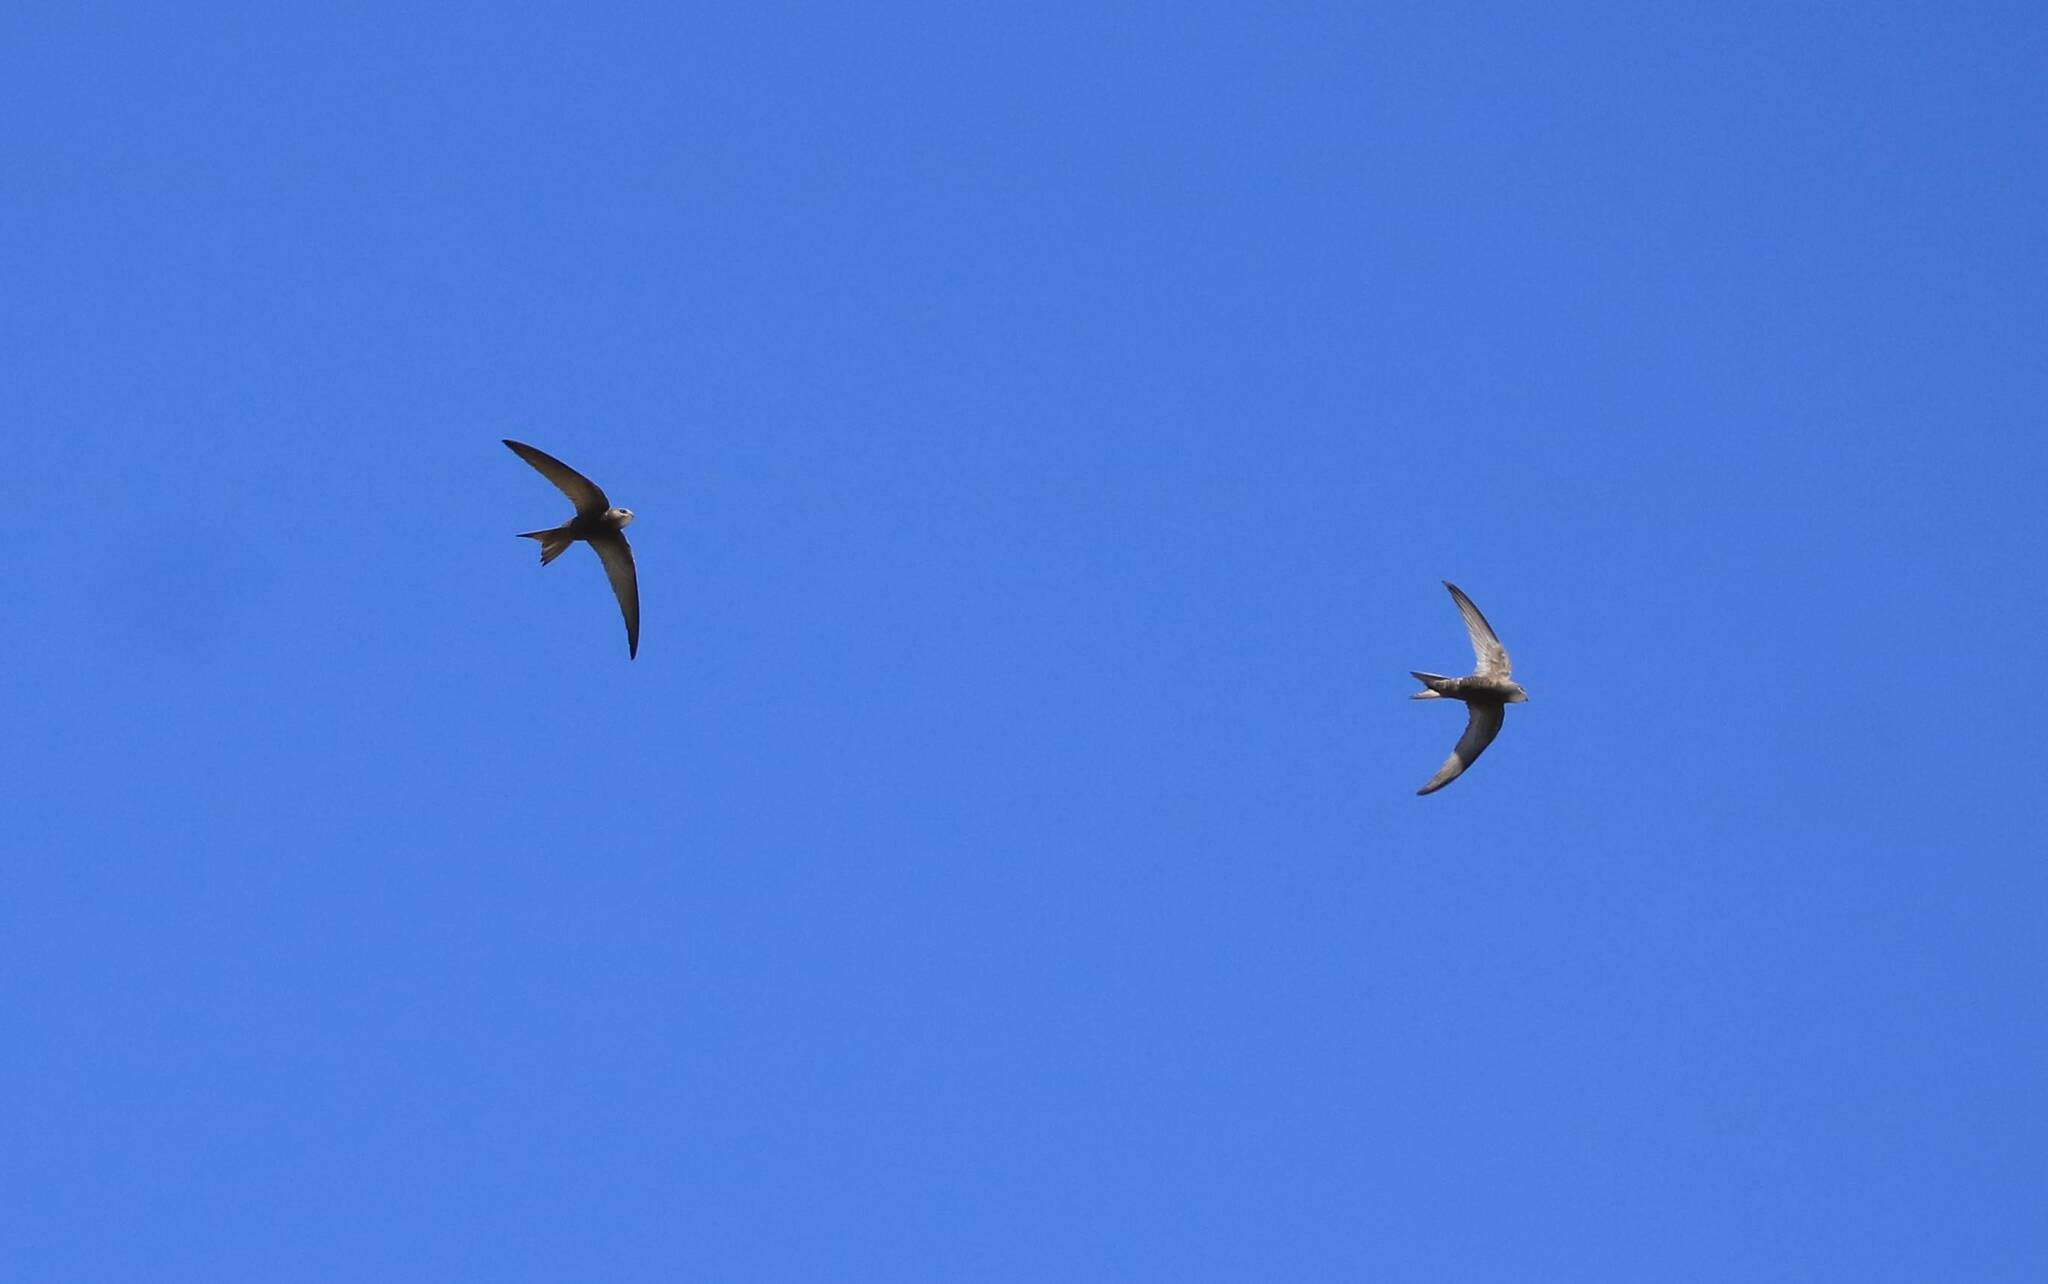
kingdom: Animalia
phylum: Chordata
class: Aves
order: Apodiformes
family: Apodidae
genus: Apus
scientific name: Apus pallidus
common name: Pallid swift
